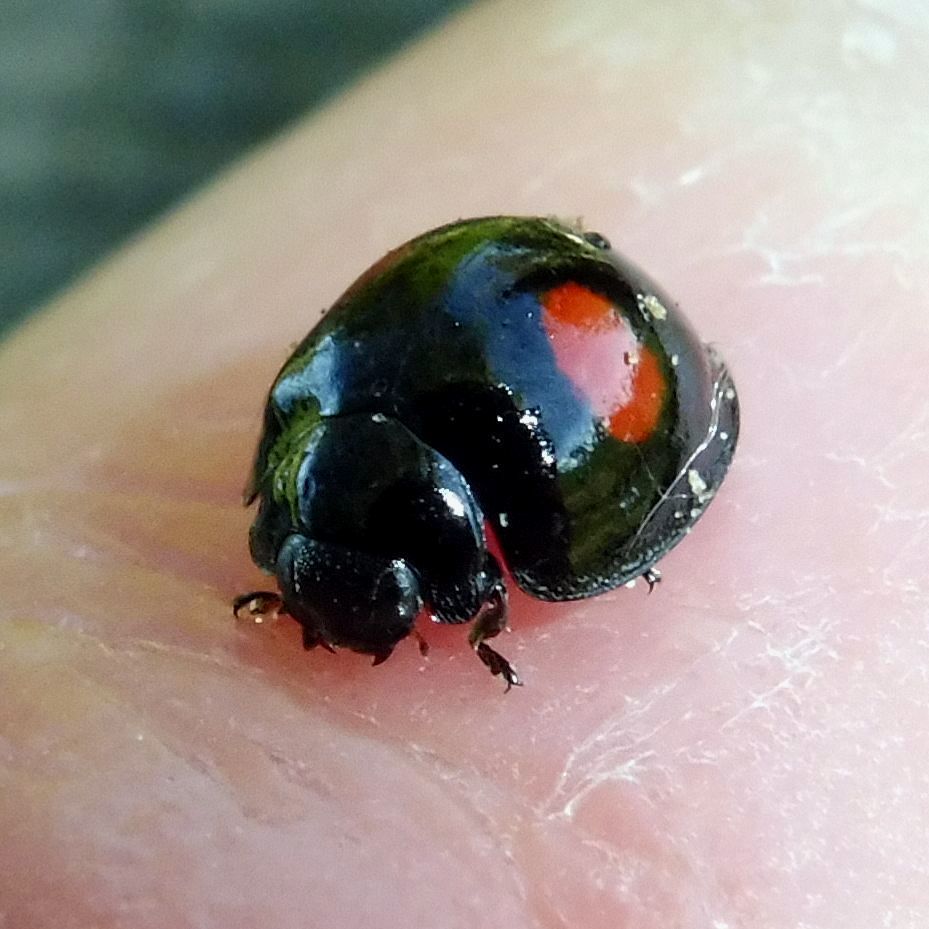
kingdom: Animalia
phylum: Arthropoda
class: Insecta
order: Coleoptera
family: Coccinellidae
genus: Chilocorus
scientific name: Chilocorus renipustulatus
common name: Kidney-spot ladybird
